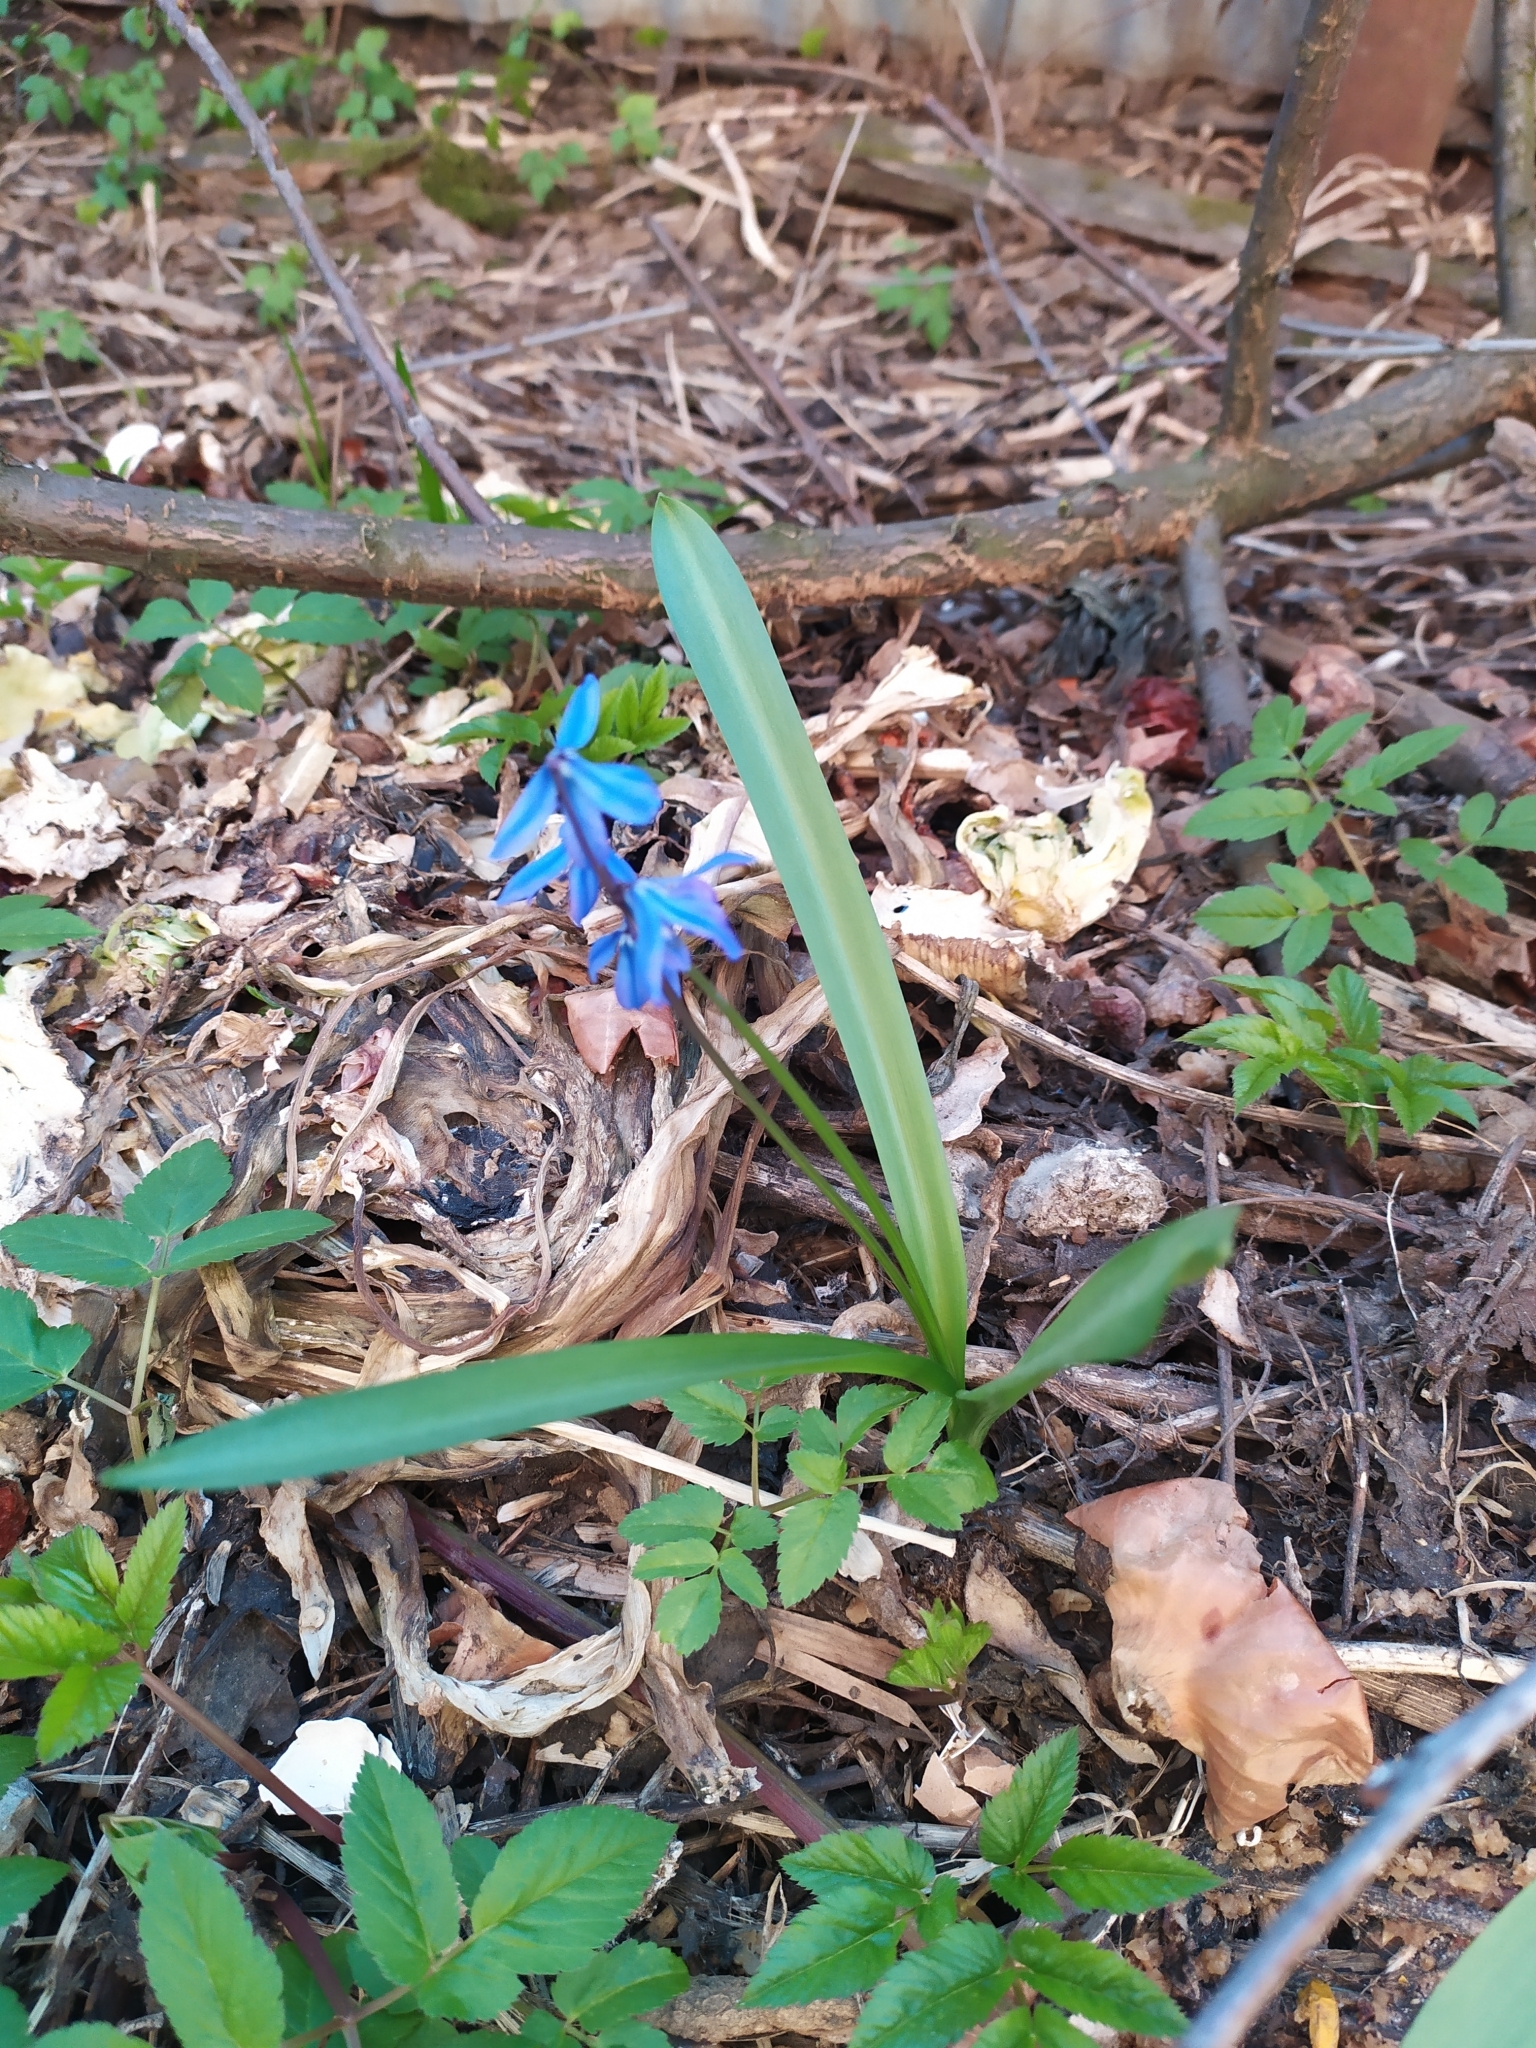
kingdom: Plantae
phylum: Tracheophyta
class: Liliopsida
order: Asparagales
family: Asparagaceae
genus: Scilla
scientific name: Scilla siberica
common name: Siberian squill
